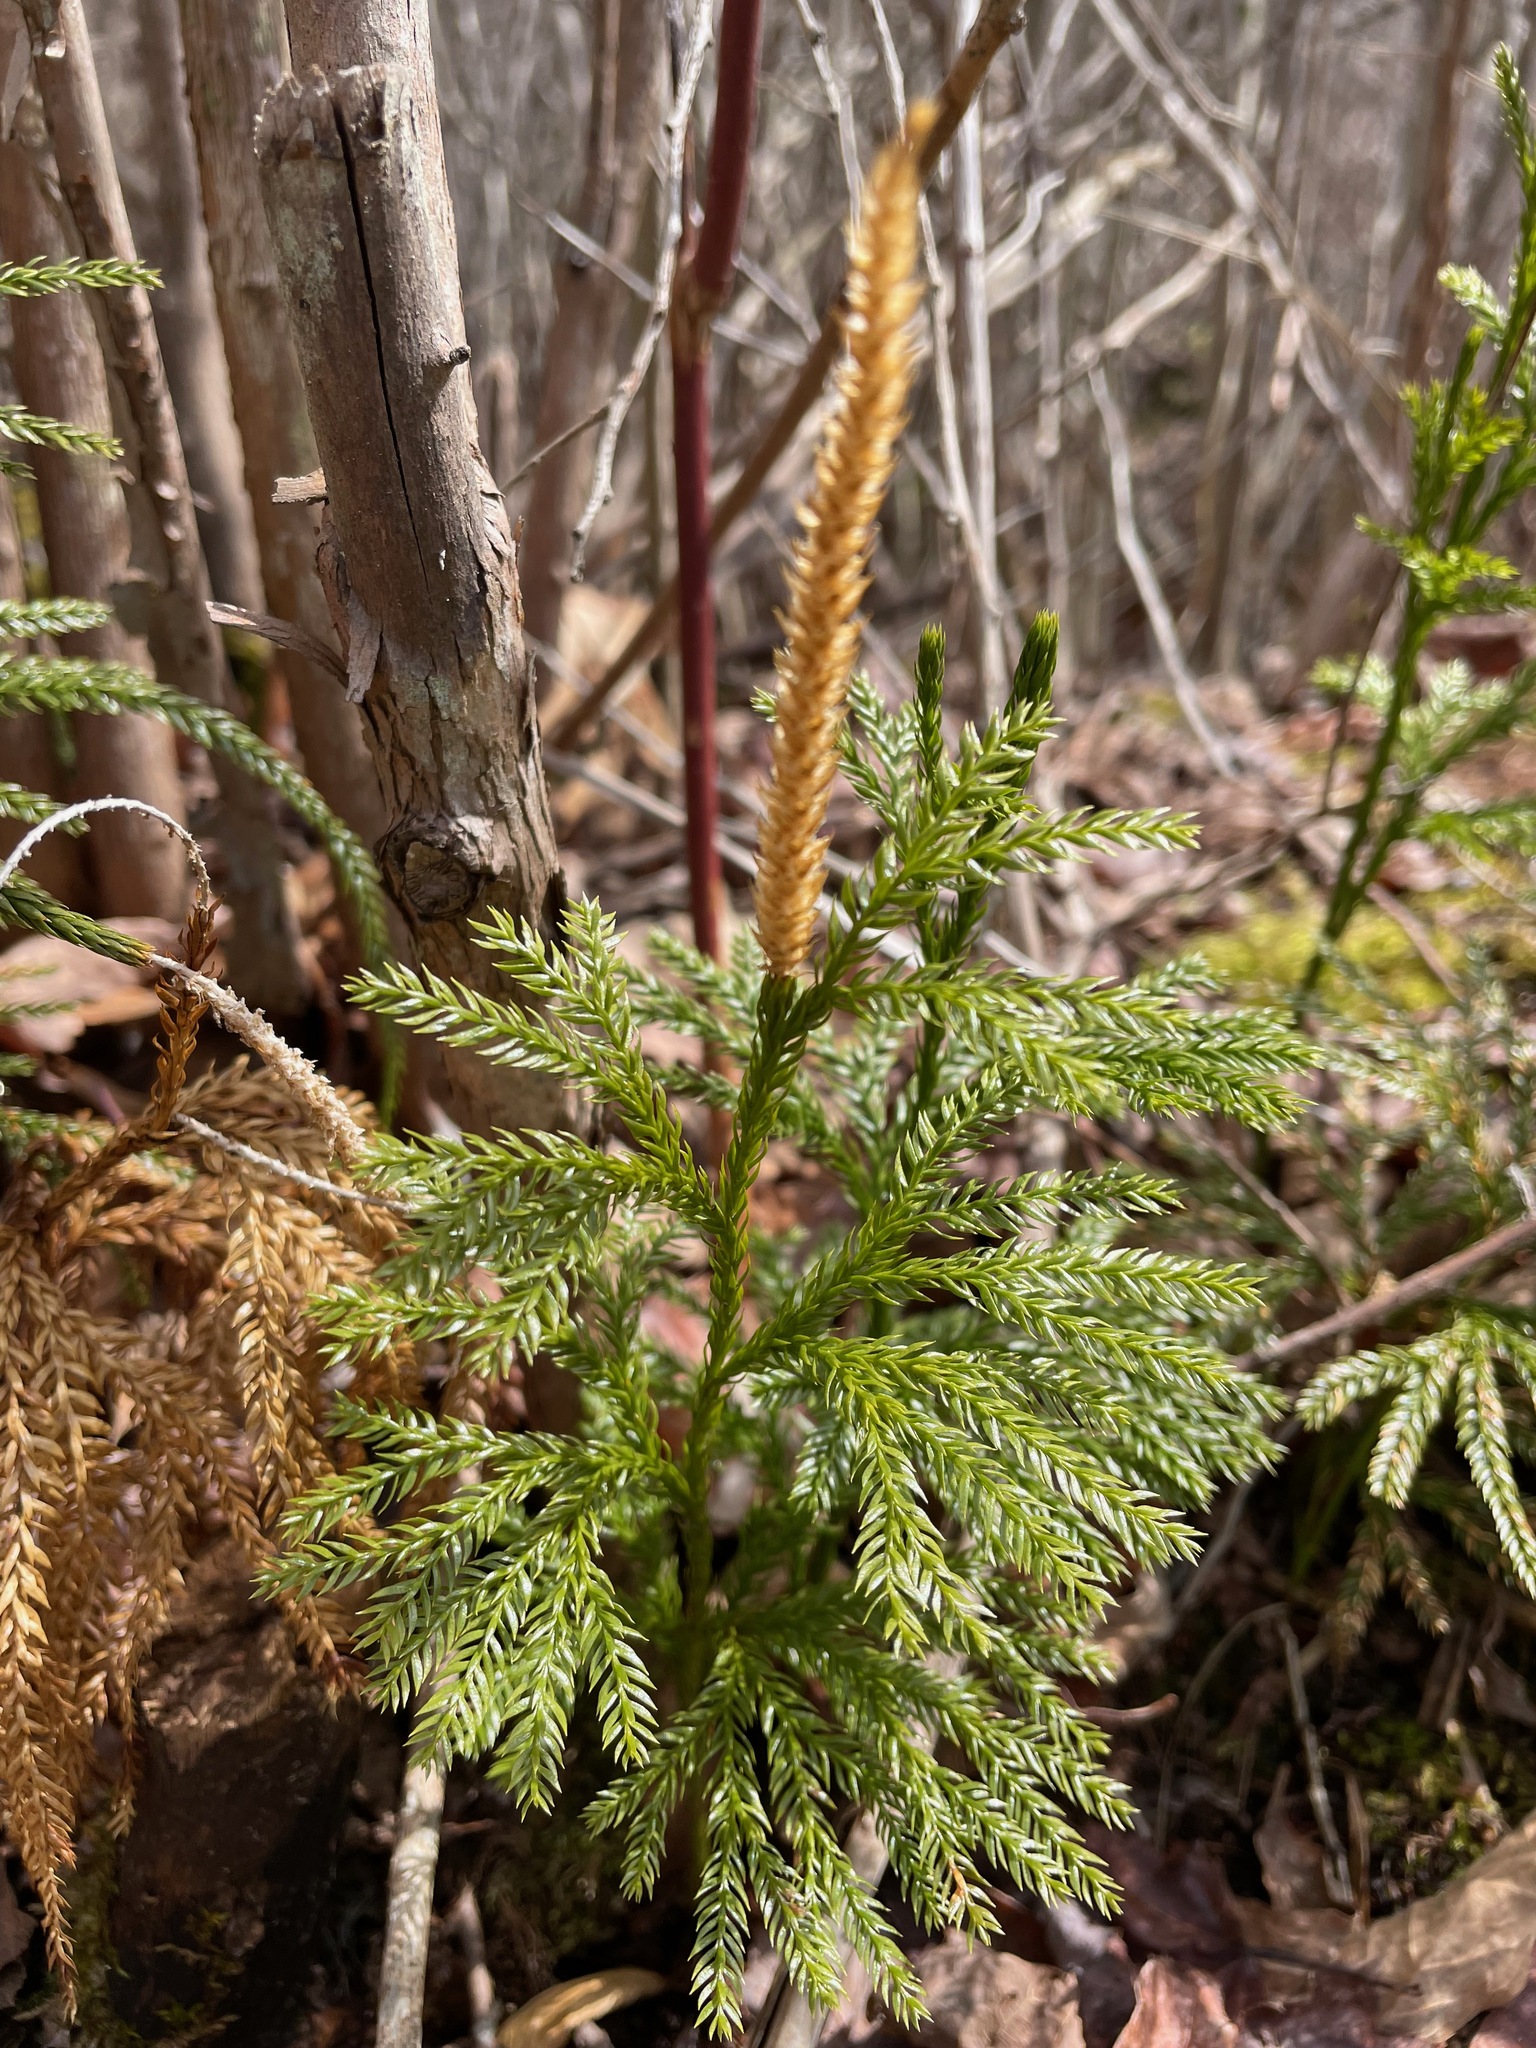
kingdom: Plantae
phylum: Tracheophyta
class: Lycopodiopsida
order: Lycopodiales
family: Lycopodiaceae
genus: Dendrolycopodium
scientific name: Dendrolycopodium obscurum
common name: Common ground-pine
